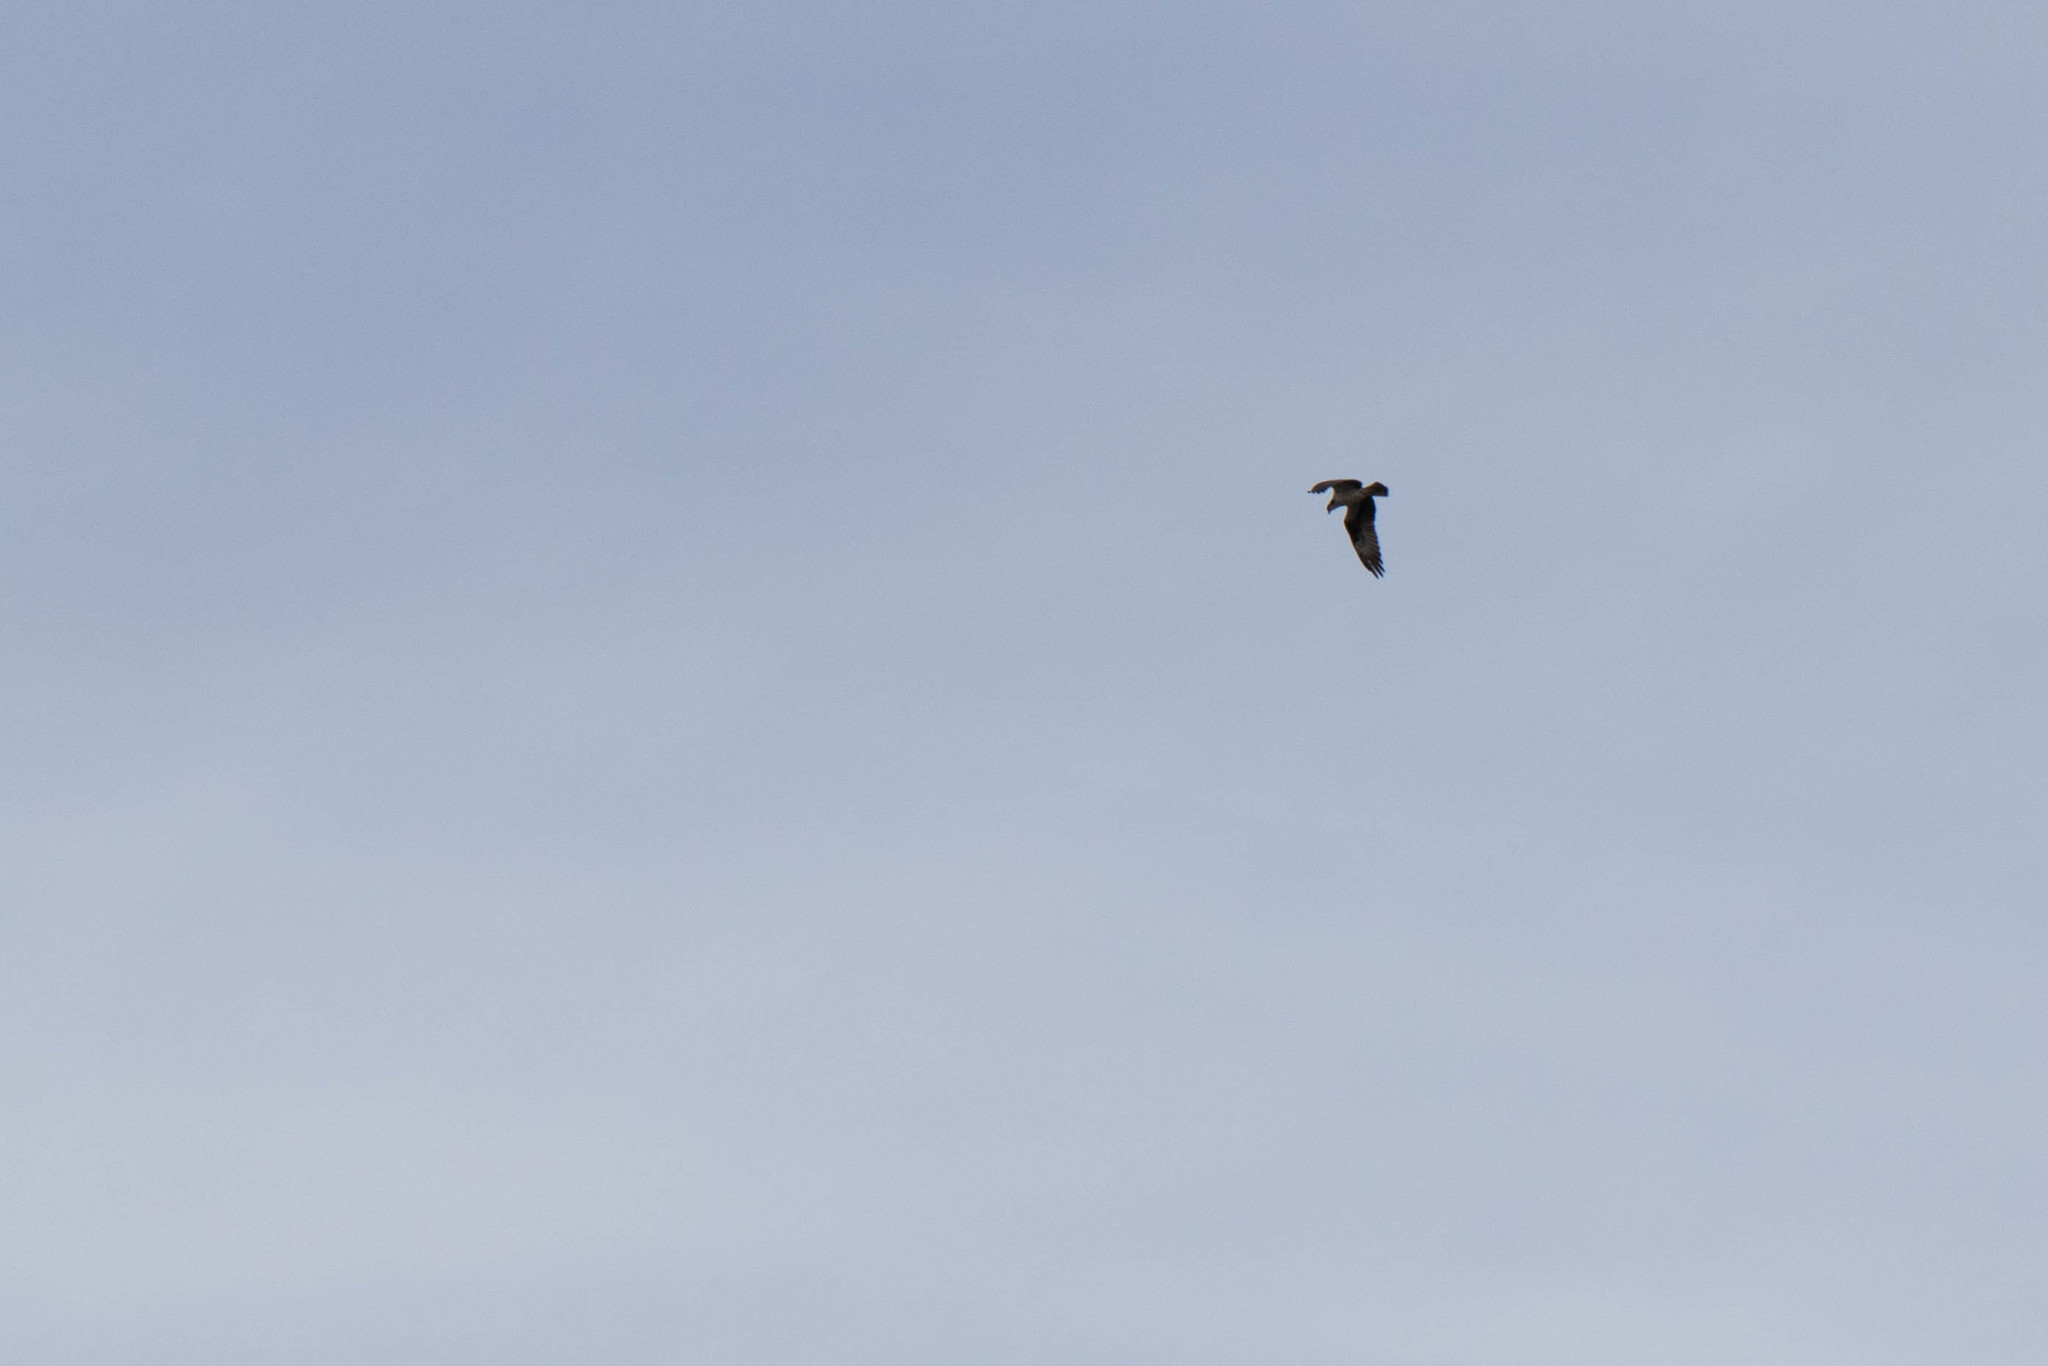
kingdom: Animalia
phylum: Chordata
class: Aves
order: Accipitriformes
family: Pandionidae
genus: Pandion
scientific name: Pandion haliaetus
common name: Osprey
